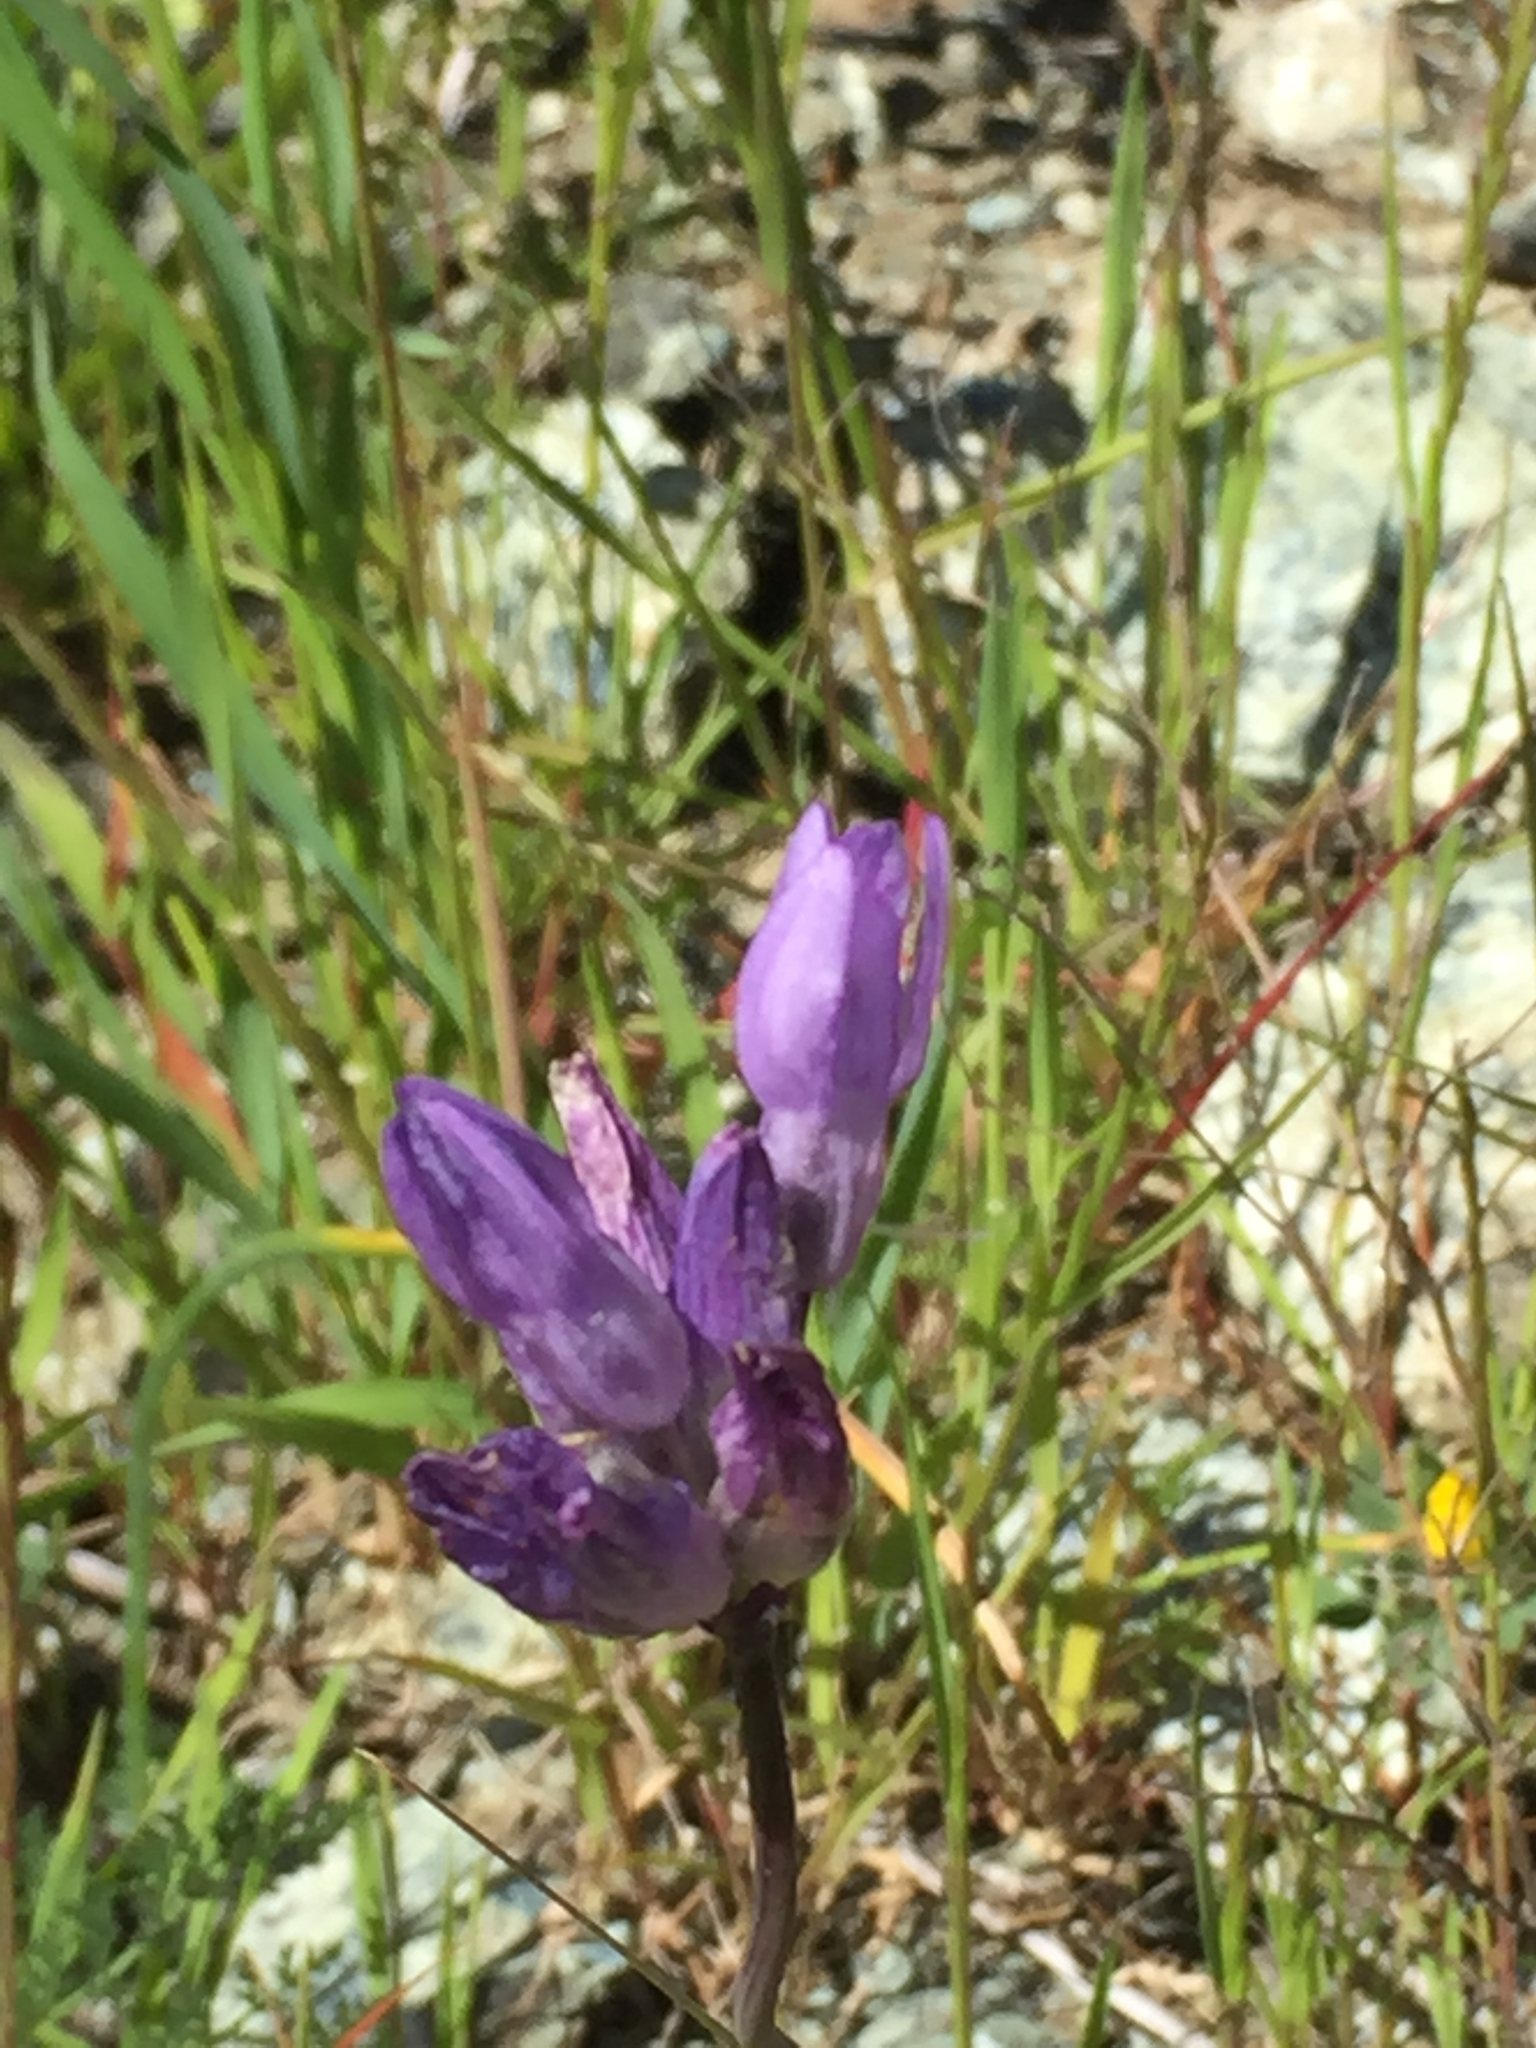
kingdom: Plantae
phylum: Tracheophyta
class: Liliopsida
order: Asparagales
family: Asparagaceae
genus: Dipterostemon
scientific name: Dipterostemon capitatus
